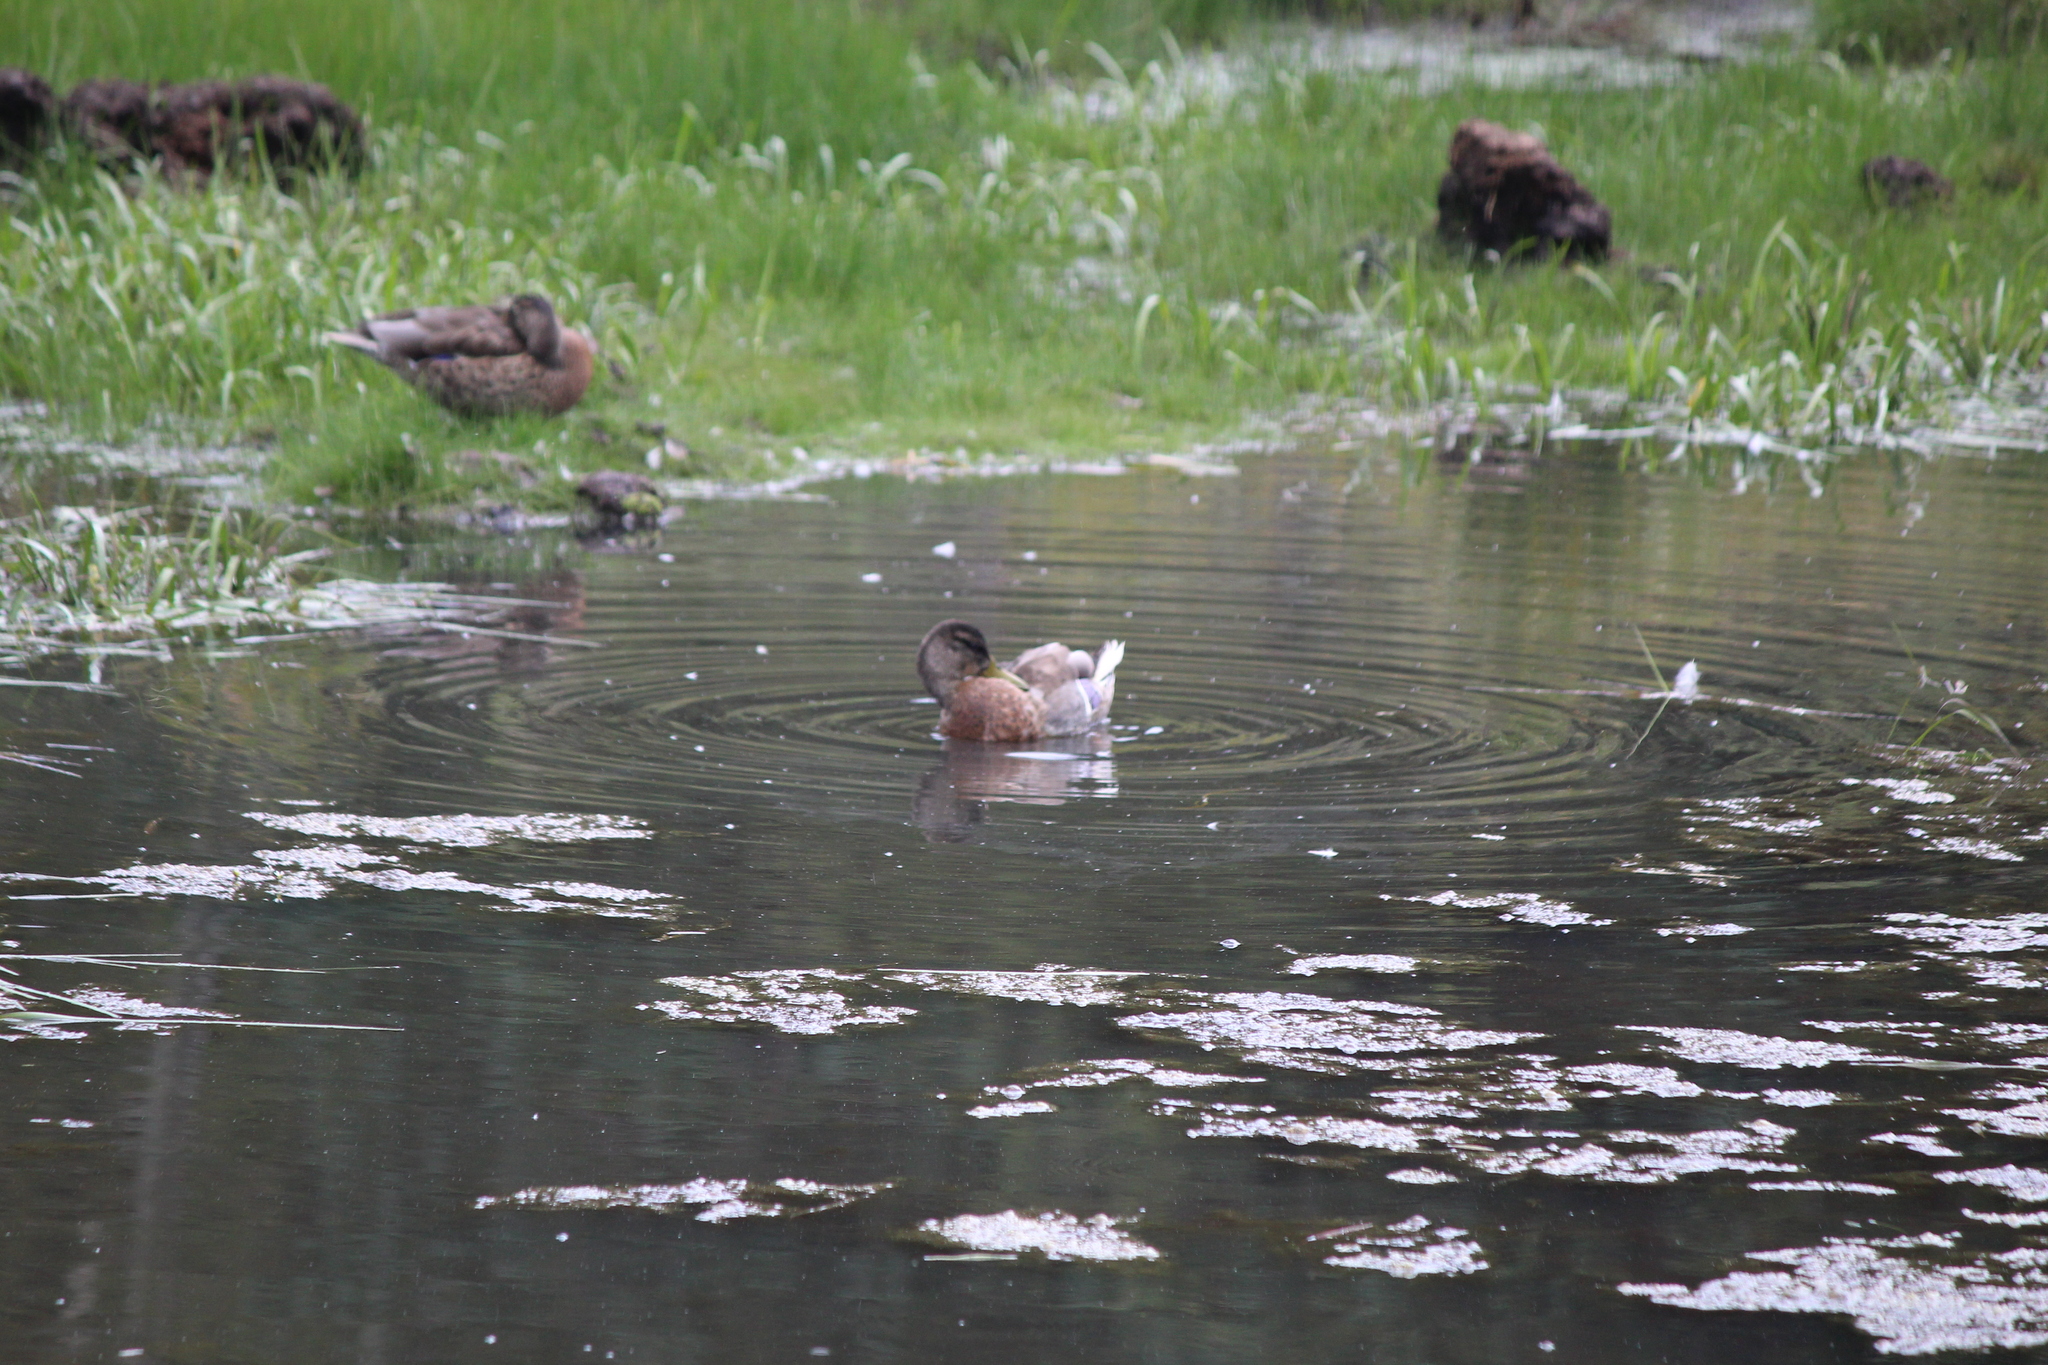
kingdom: Animalia
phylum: Chordata
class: Aves
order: Anseriformes
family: Anatidae
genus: Anas
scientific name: Anas platyrhynchos
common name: Mallard
